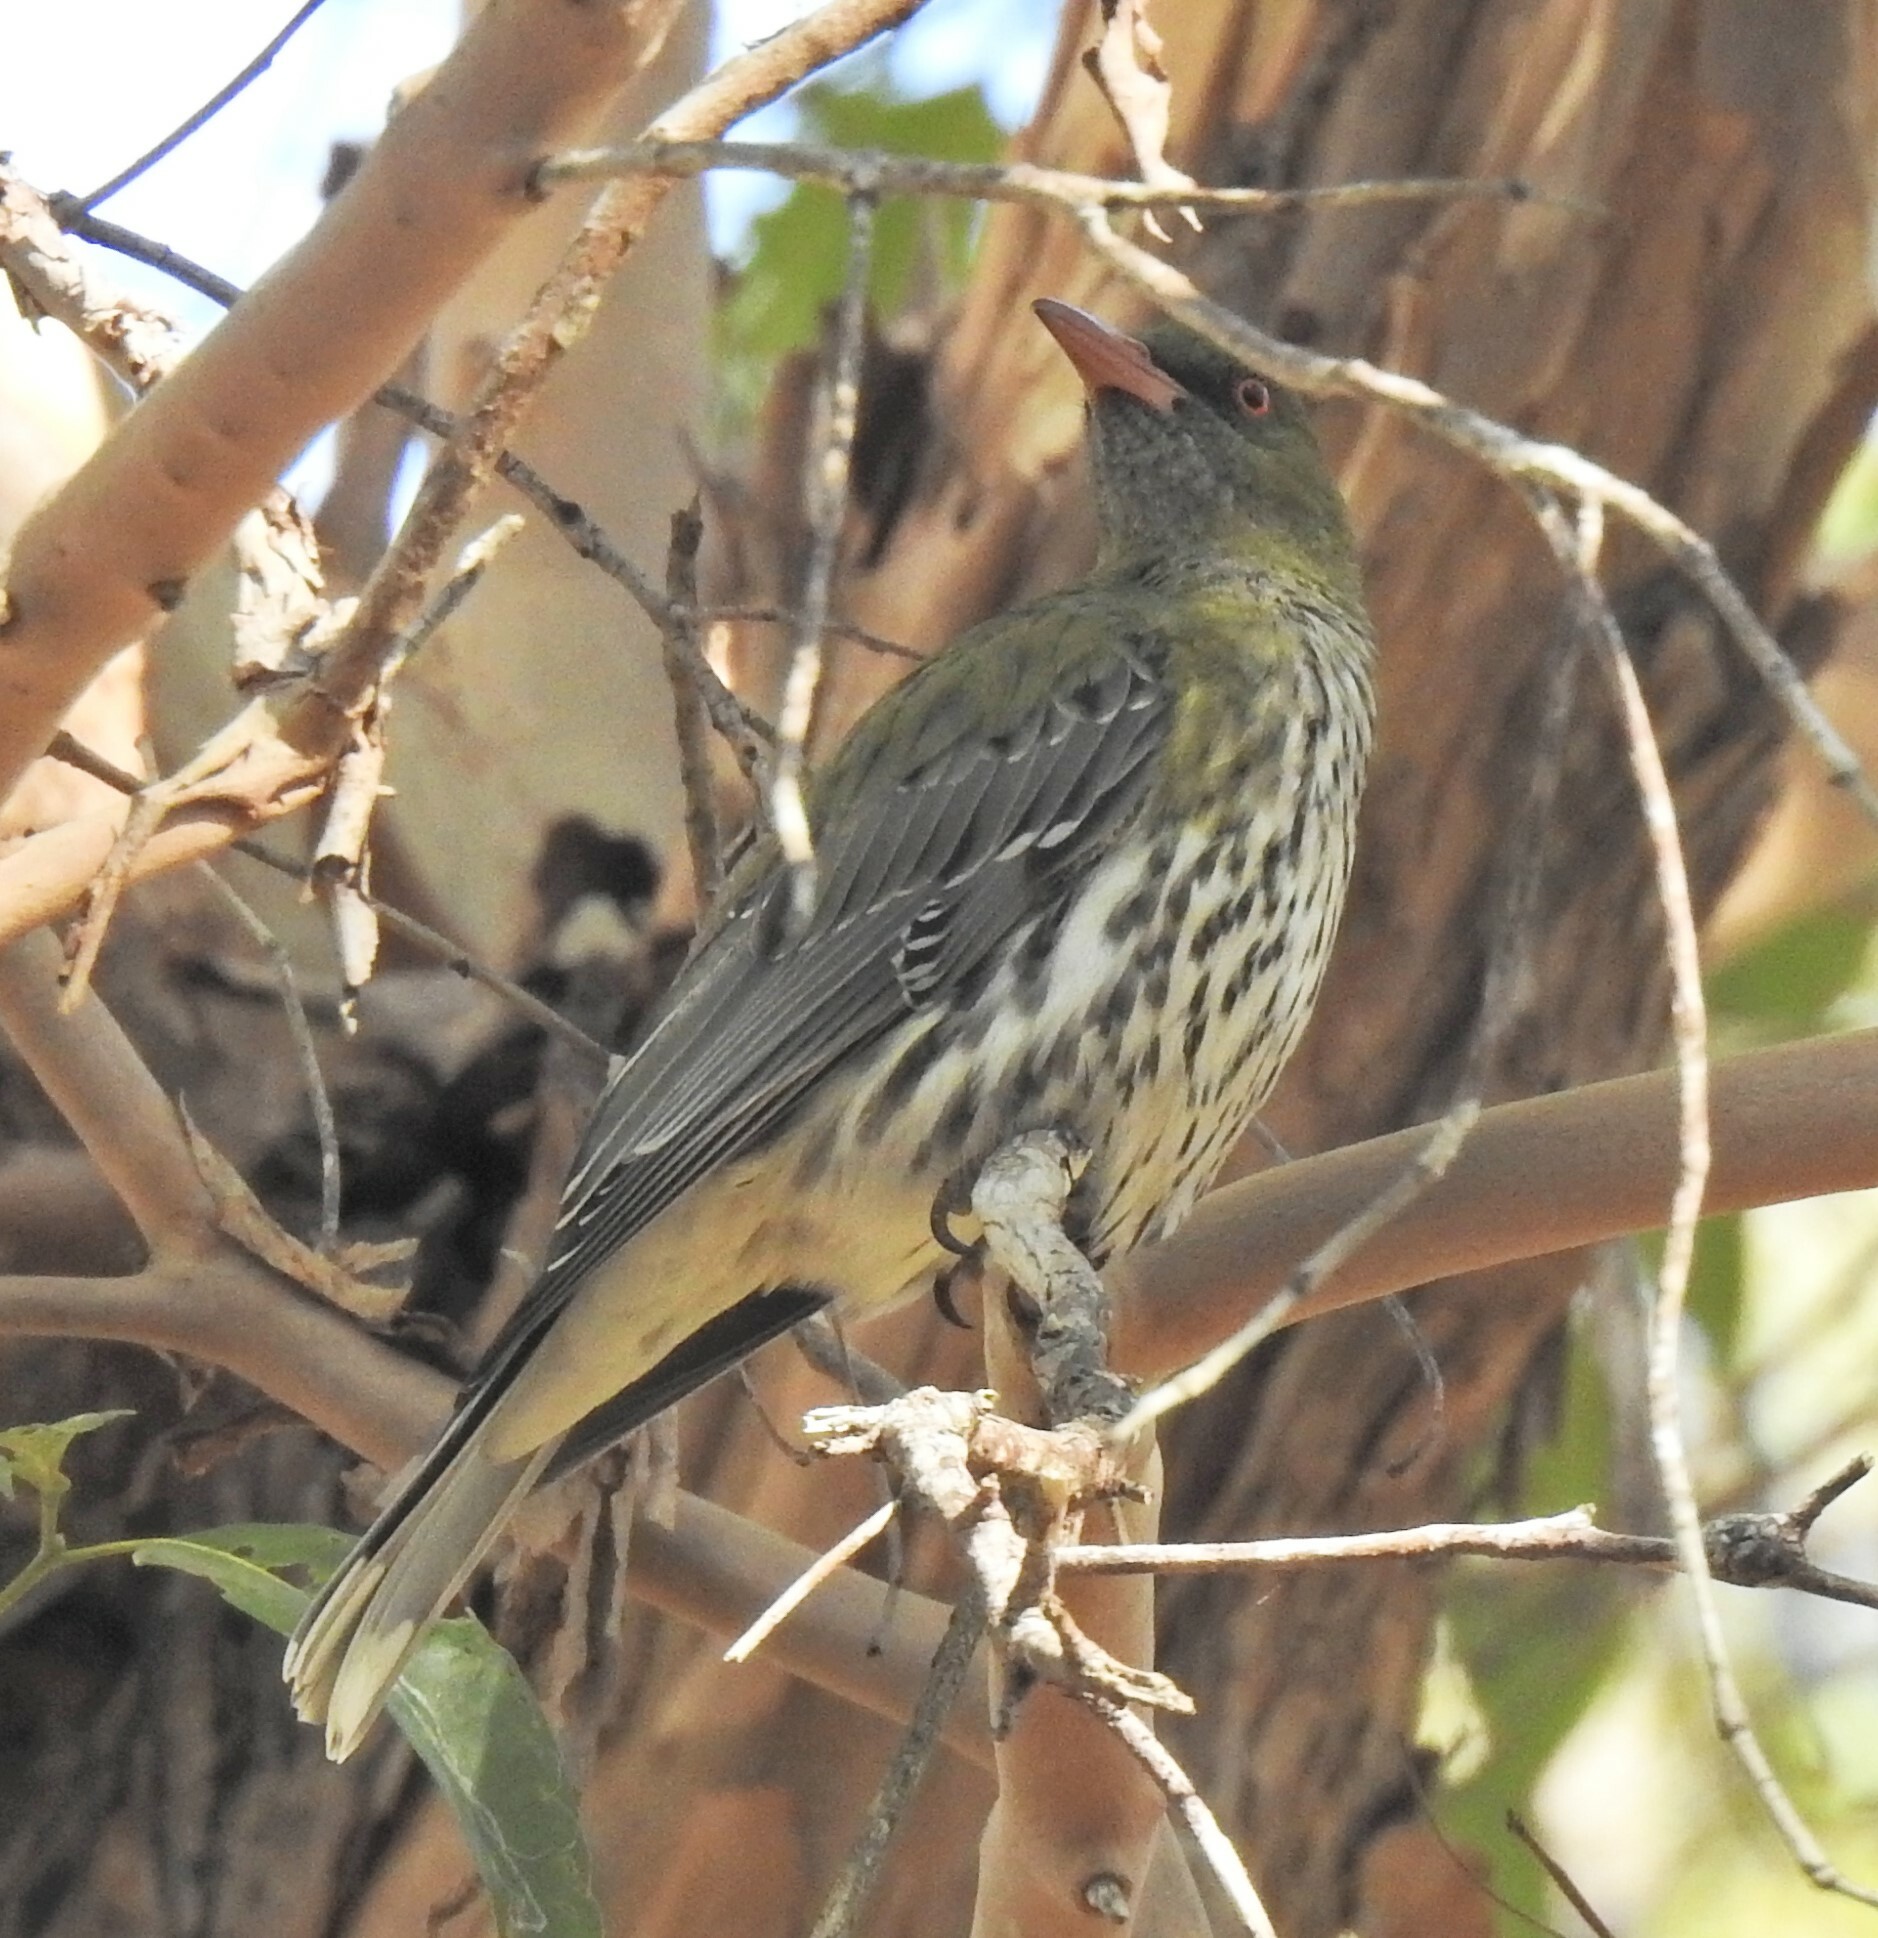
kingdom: Animalia
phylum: Chordata
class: Aves
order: Passeriformes
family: Oriolidae
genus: Oriolus
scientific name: Oriolus sagittatus
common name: Olive-backed oriole
